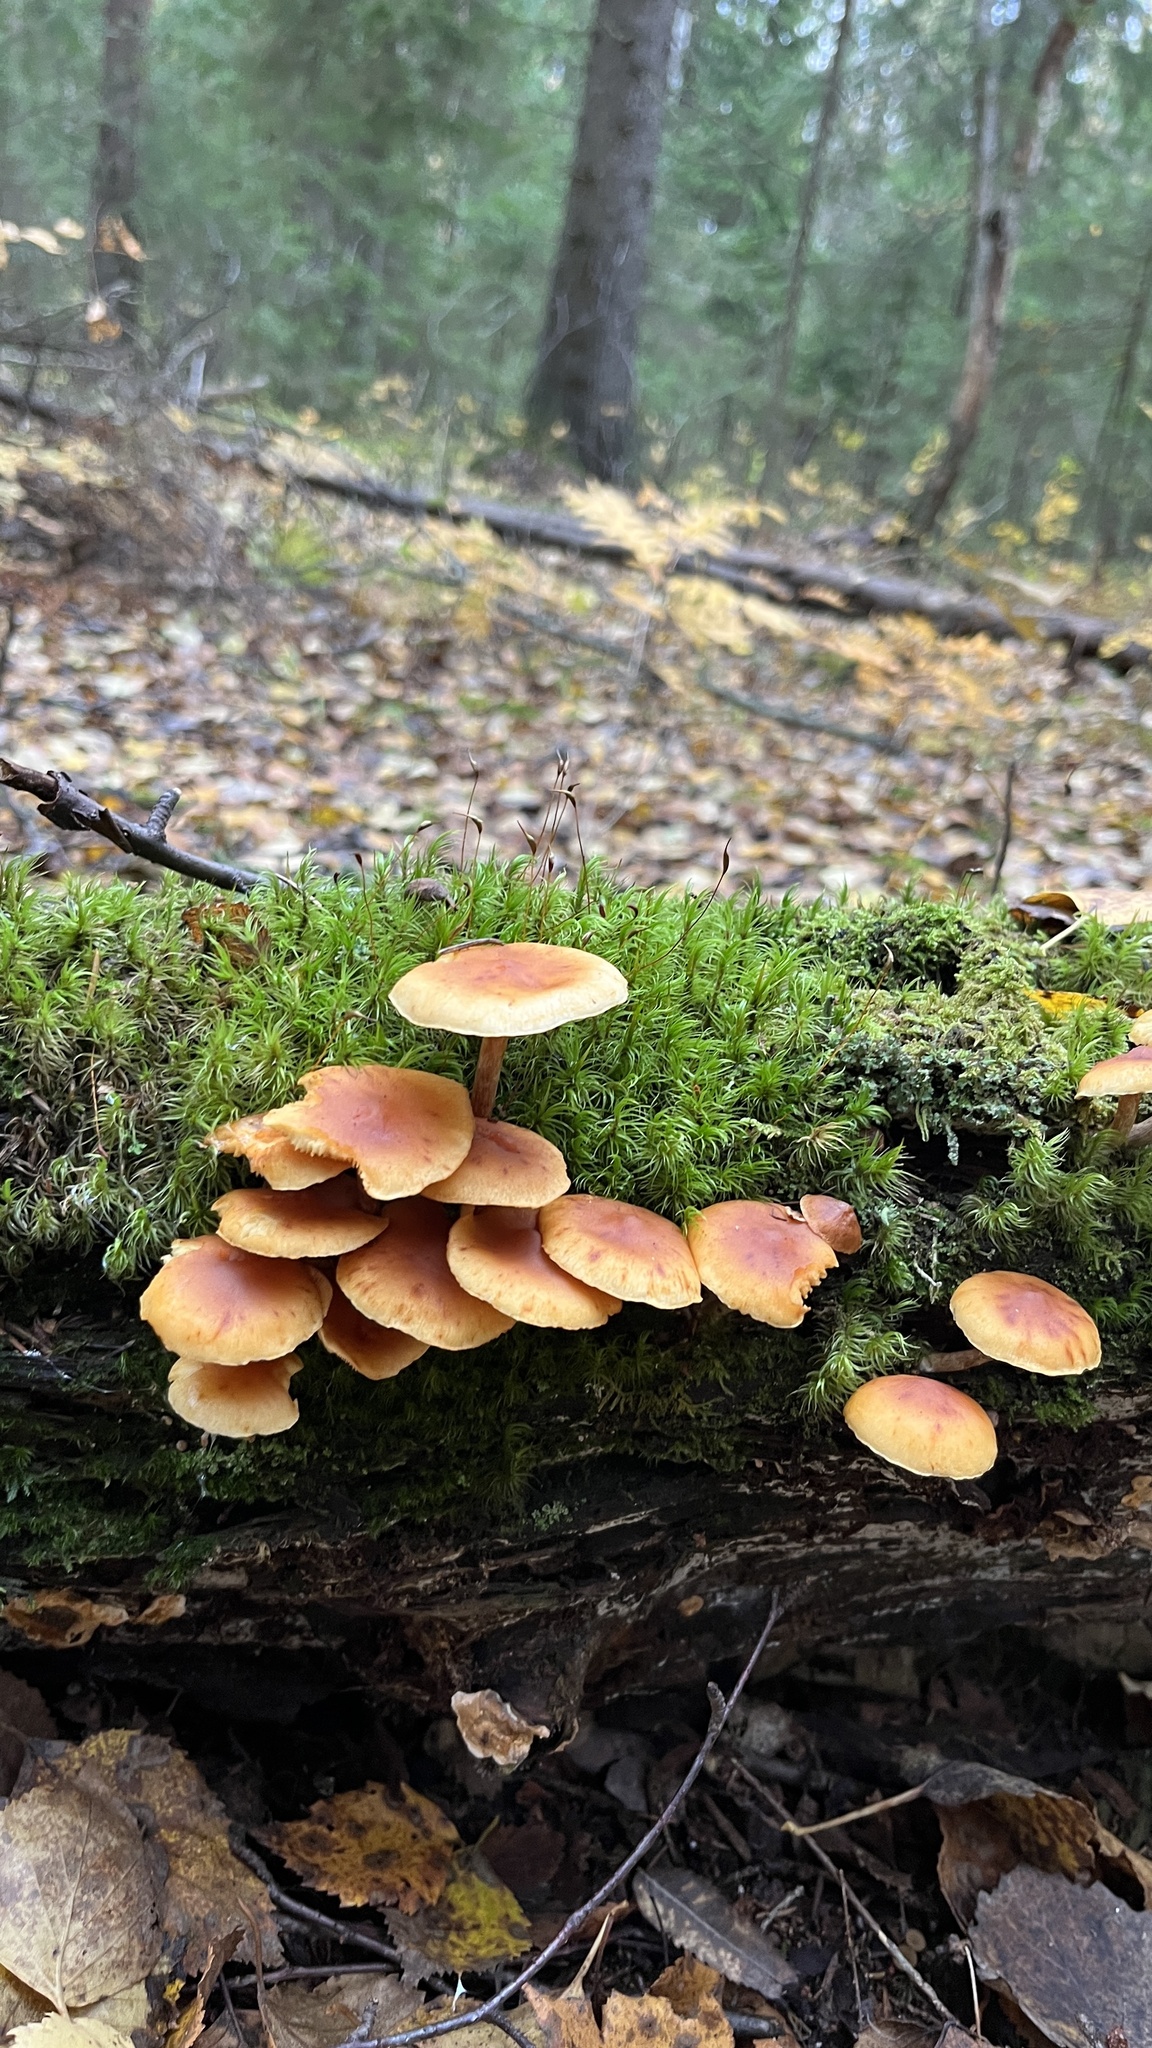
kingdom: Fungi
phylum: Basidiomycota
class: Agaricomycetes
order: Agaricales
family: Hymenogastraceae
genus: Gymnopilus
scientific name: Gymnopilus penetrans
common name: Common rustgill
